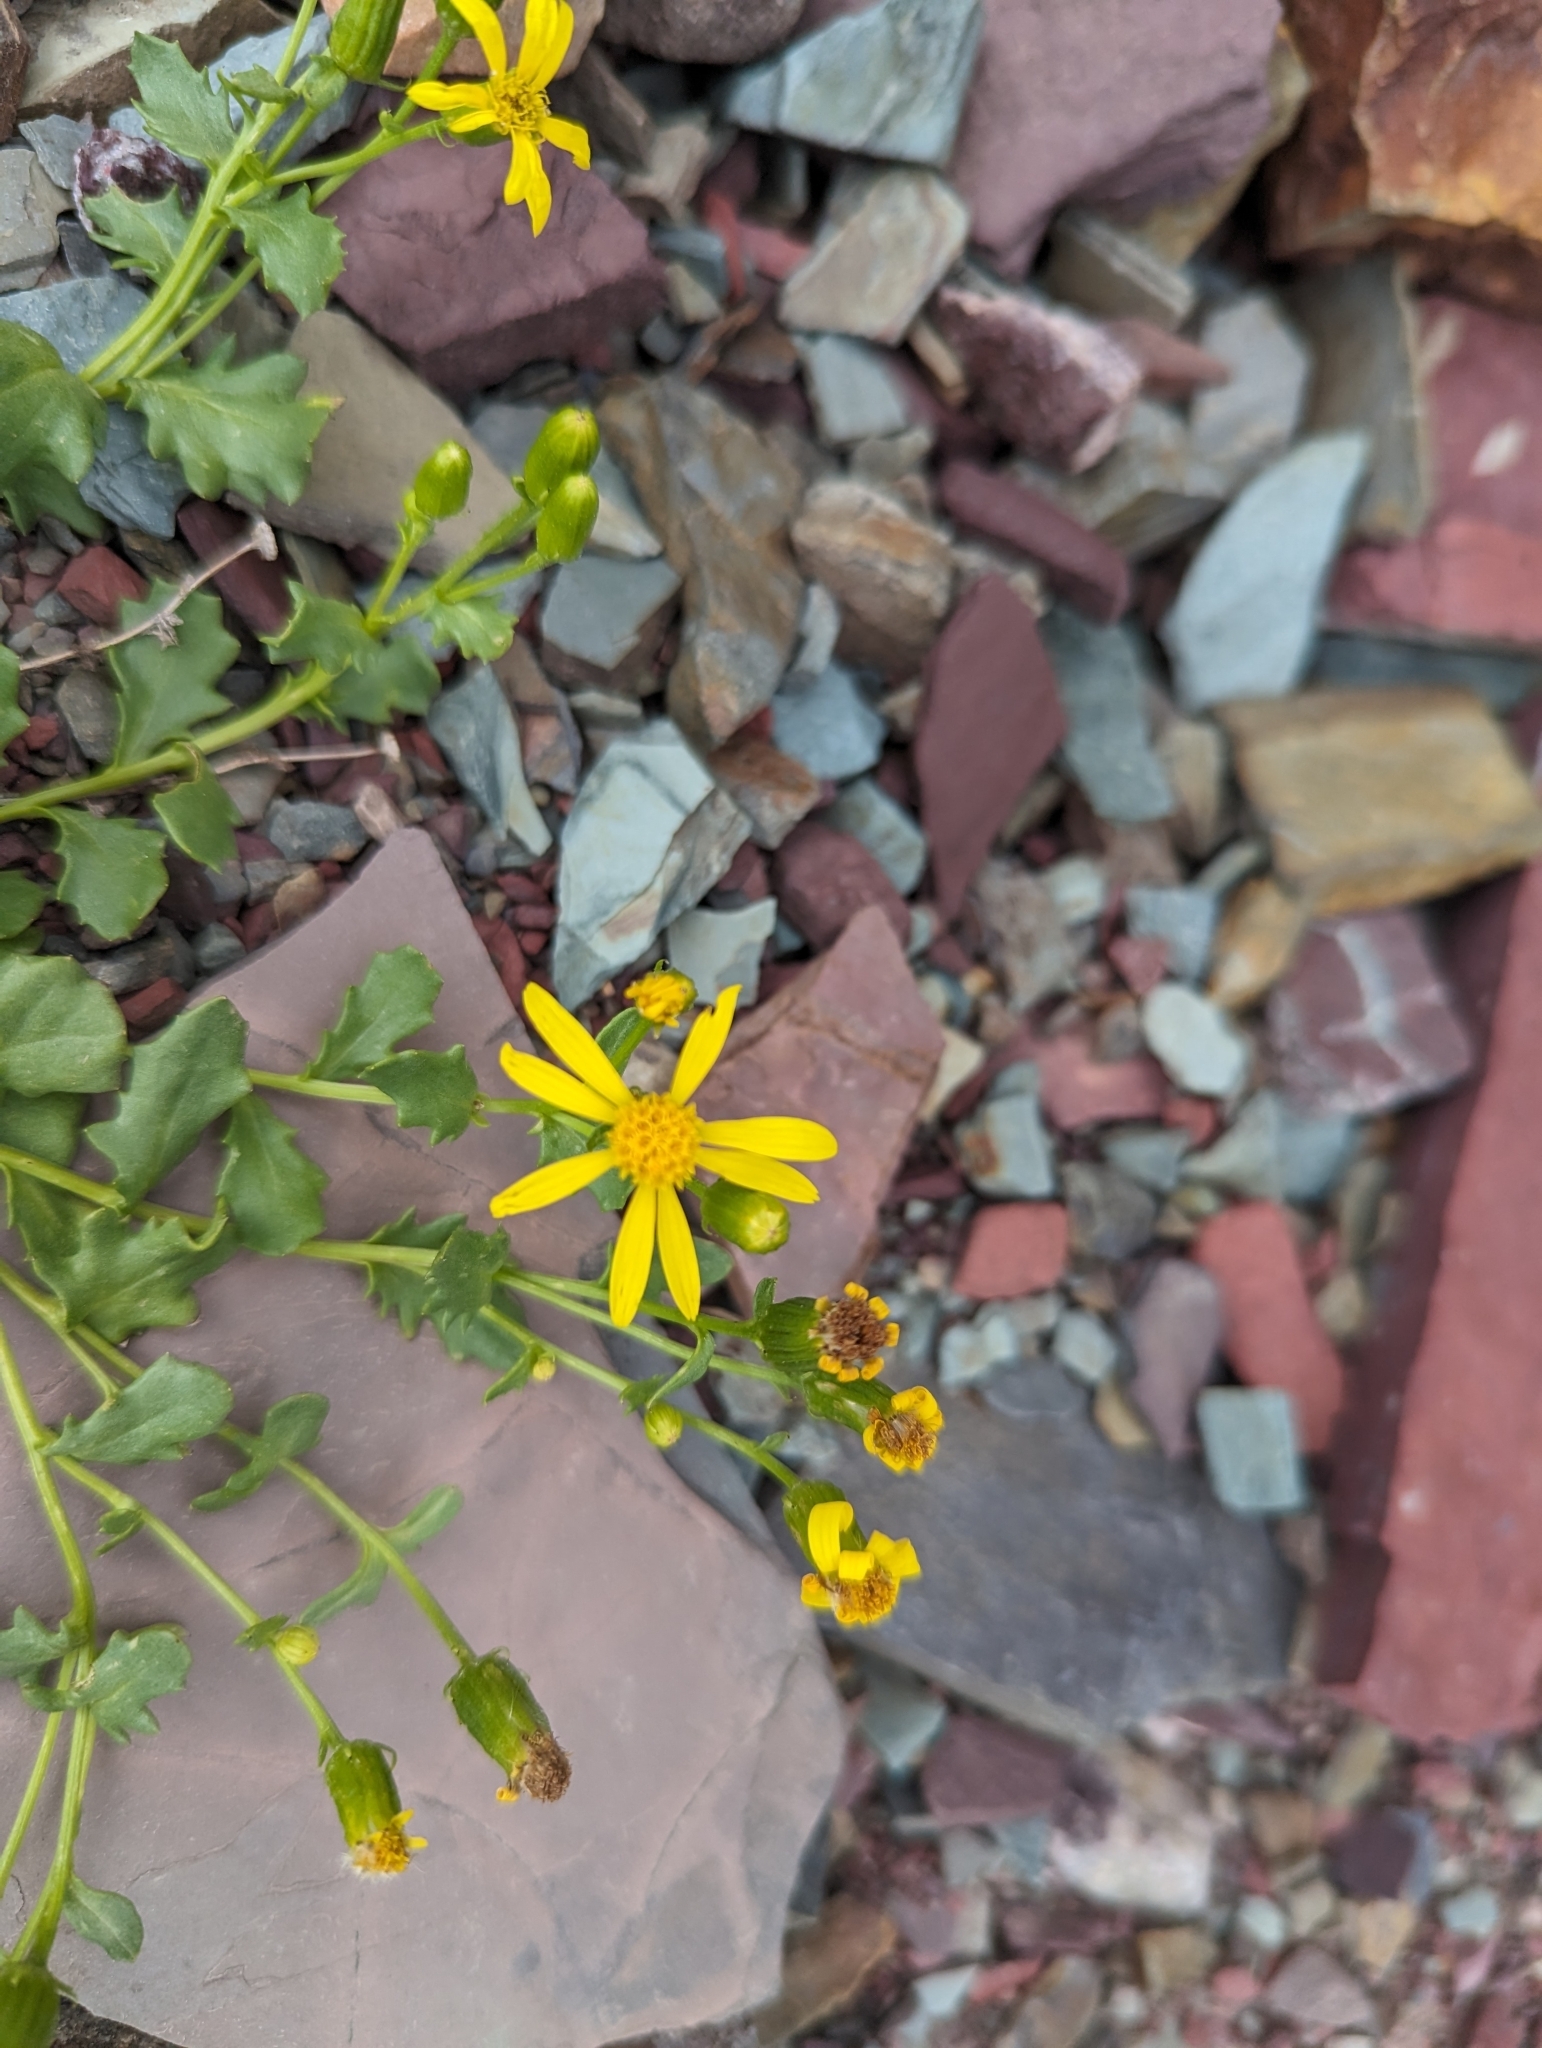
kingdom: Plantae
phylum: Tracheophyta
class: Magnoliopsida
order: Asterales
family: Asteraceae
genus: Senecio
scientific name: Senecio fremontii
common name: Fremont's groundsel
